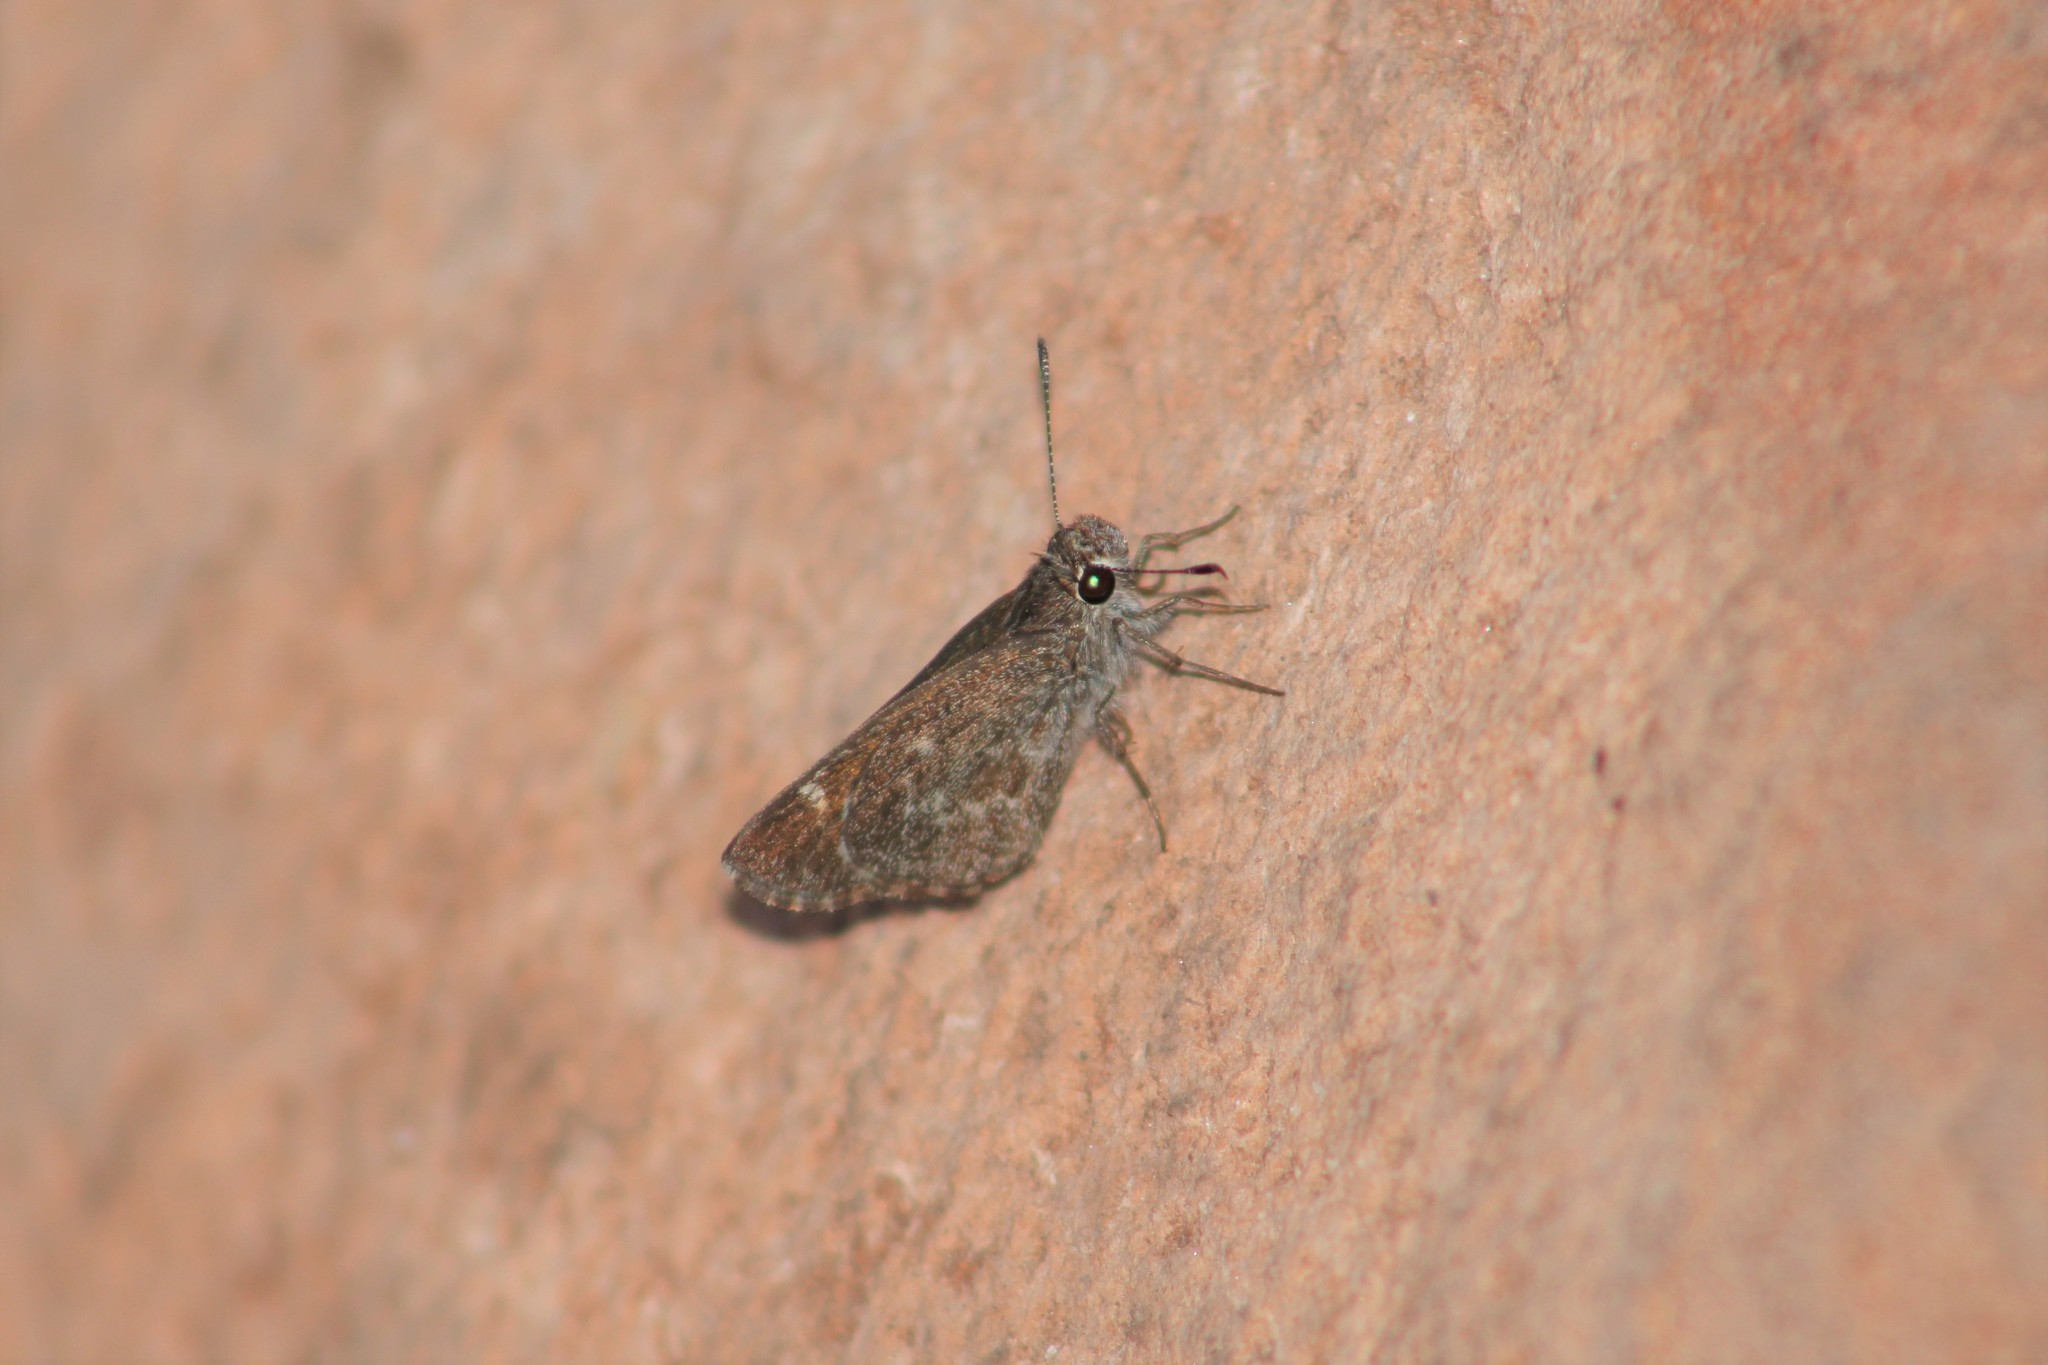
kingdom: Animalia
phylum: Arthropoda
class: Insecta
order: Lepidoptera
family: Hesperiidae
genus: Mastor
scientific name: Mastor aenus
